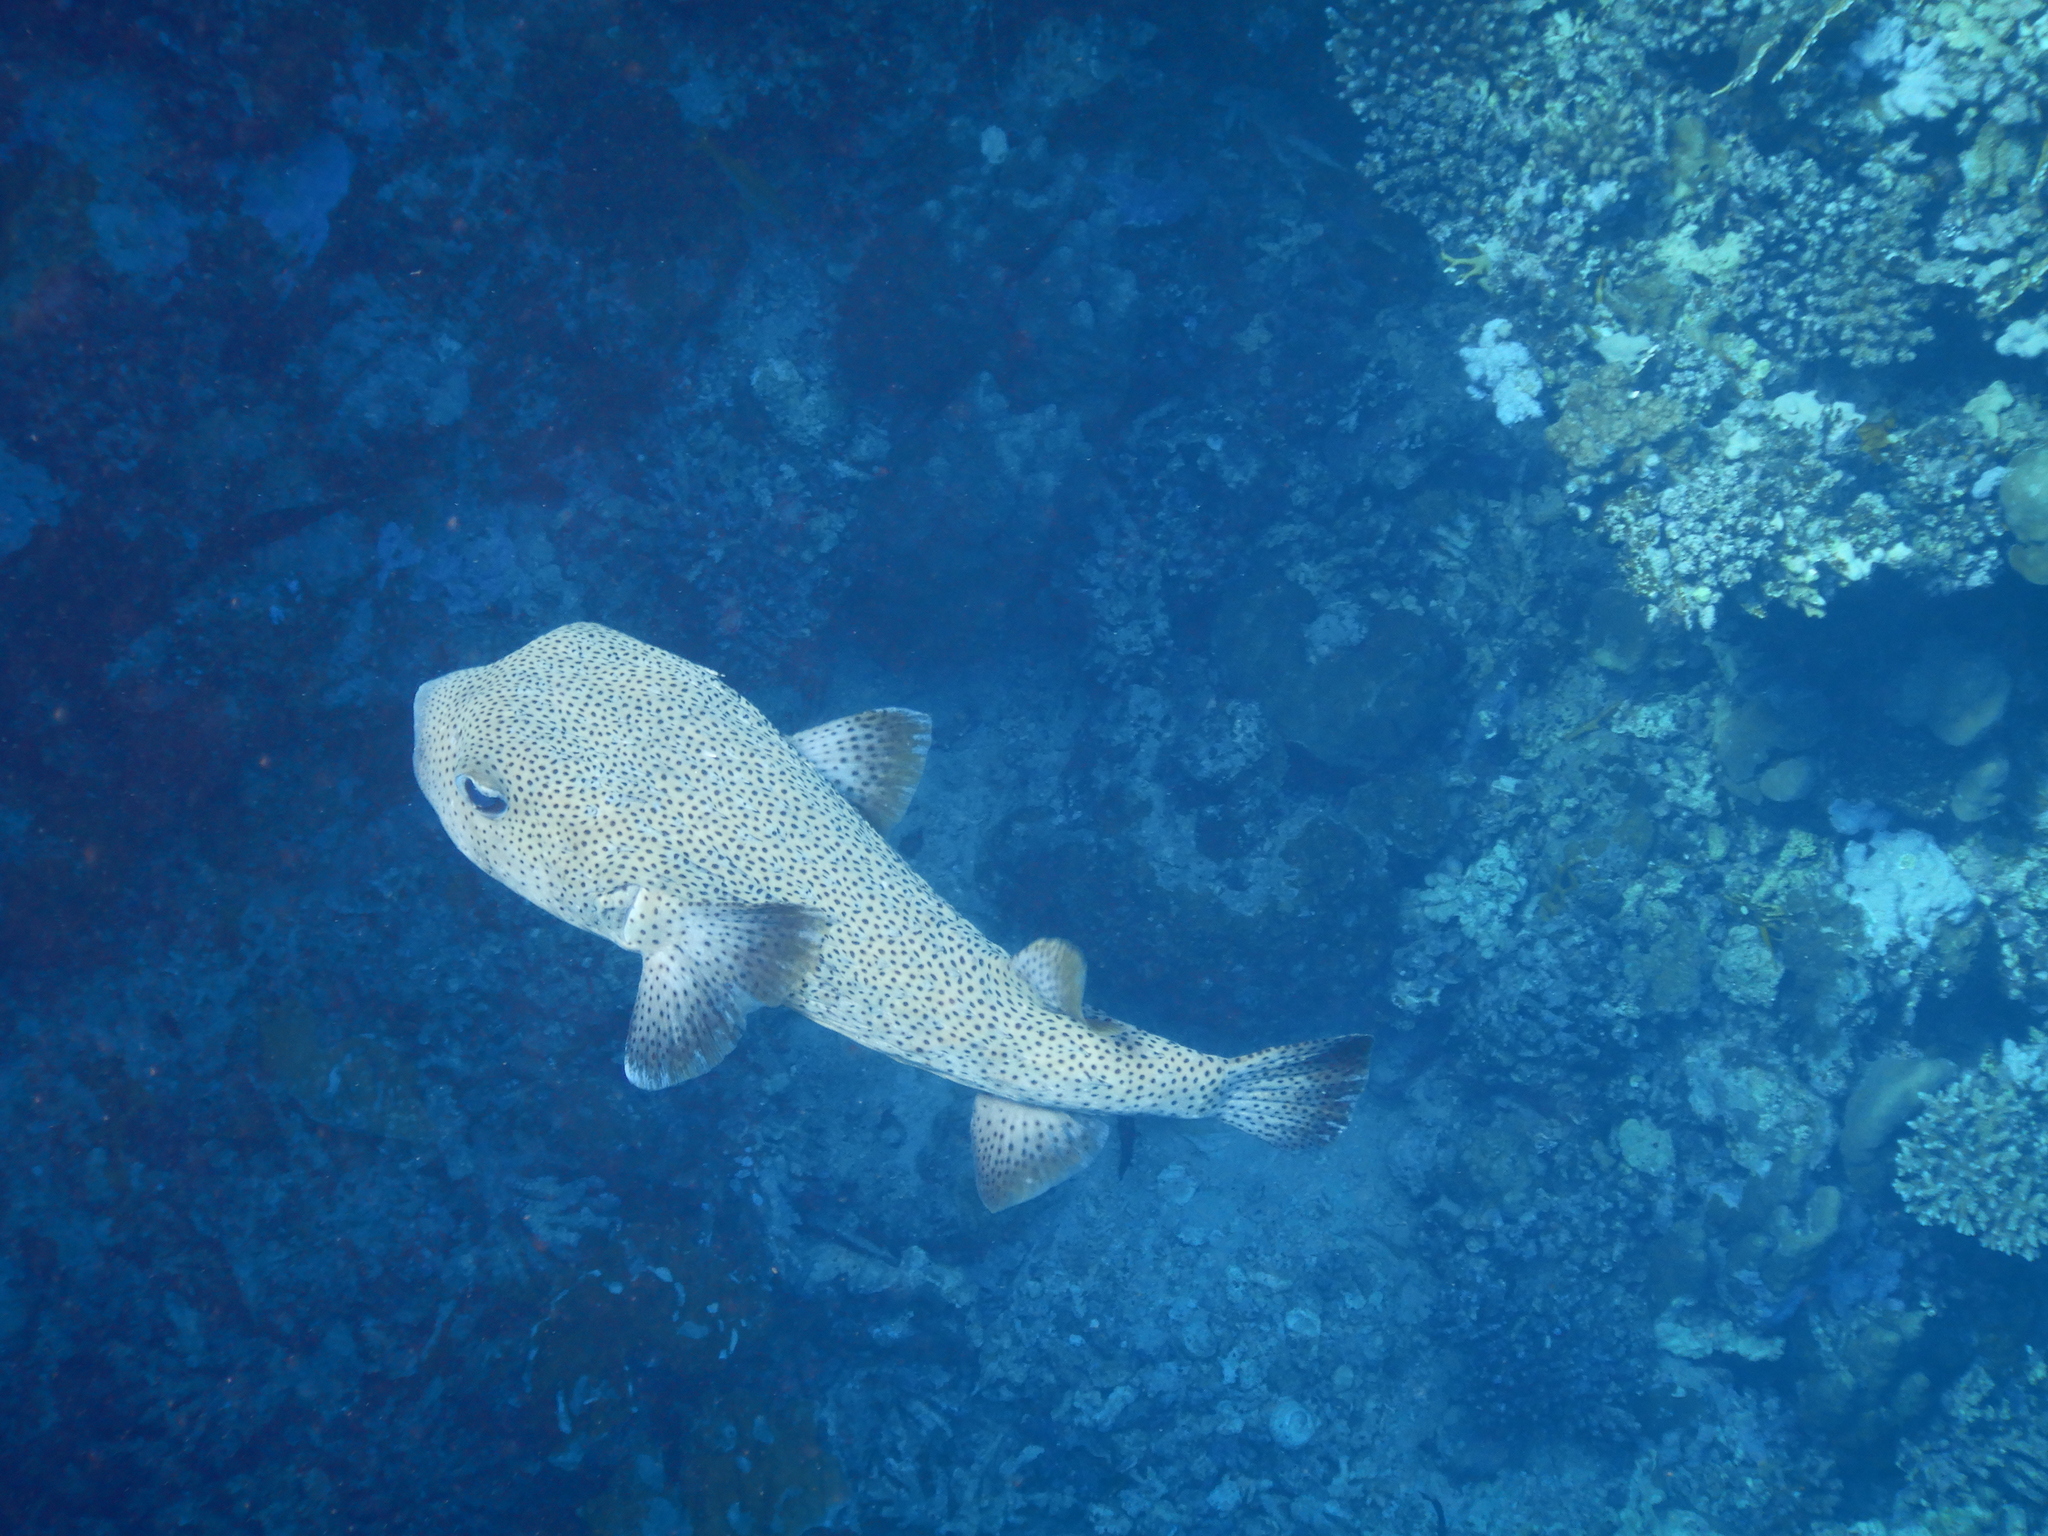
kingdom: Animalia
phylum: Chordata
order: Tetraodontiformes
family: Diodontidae
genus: Diodon
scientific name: Diodon hystrix
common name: Giant porcupinefish
